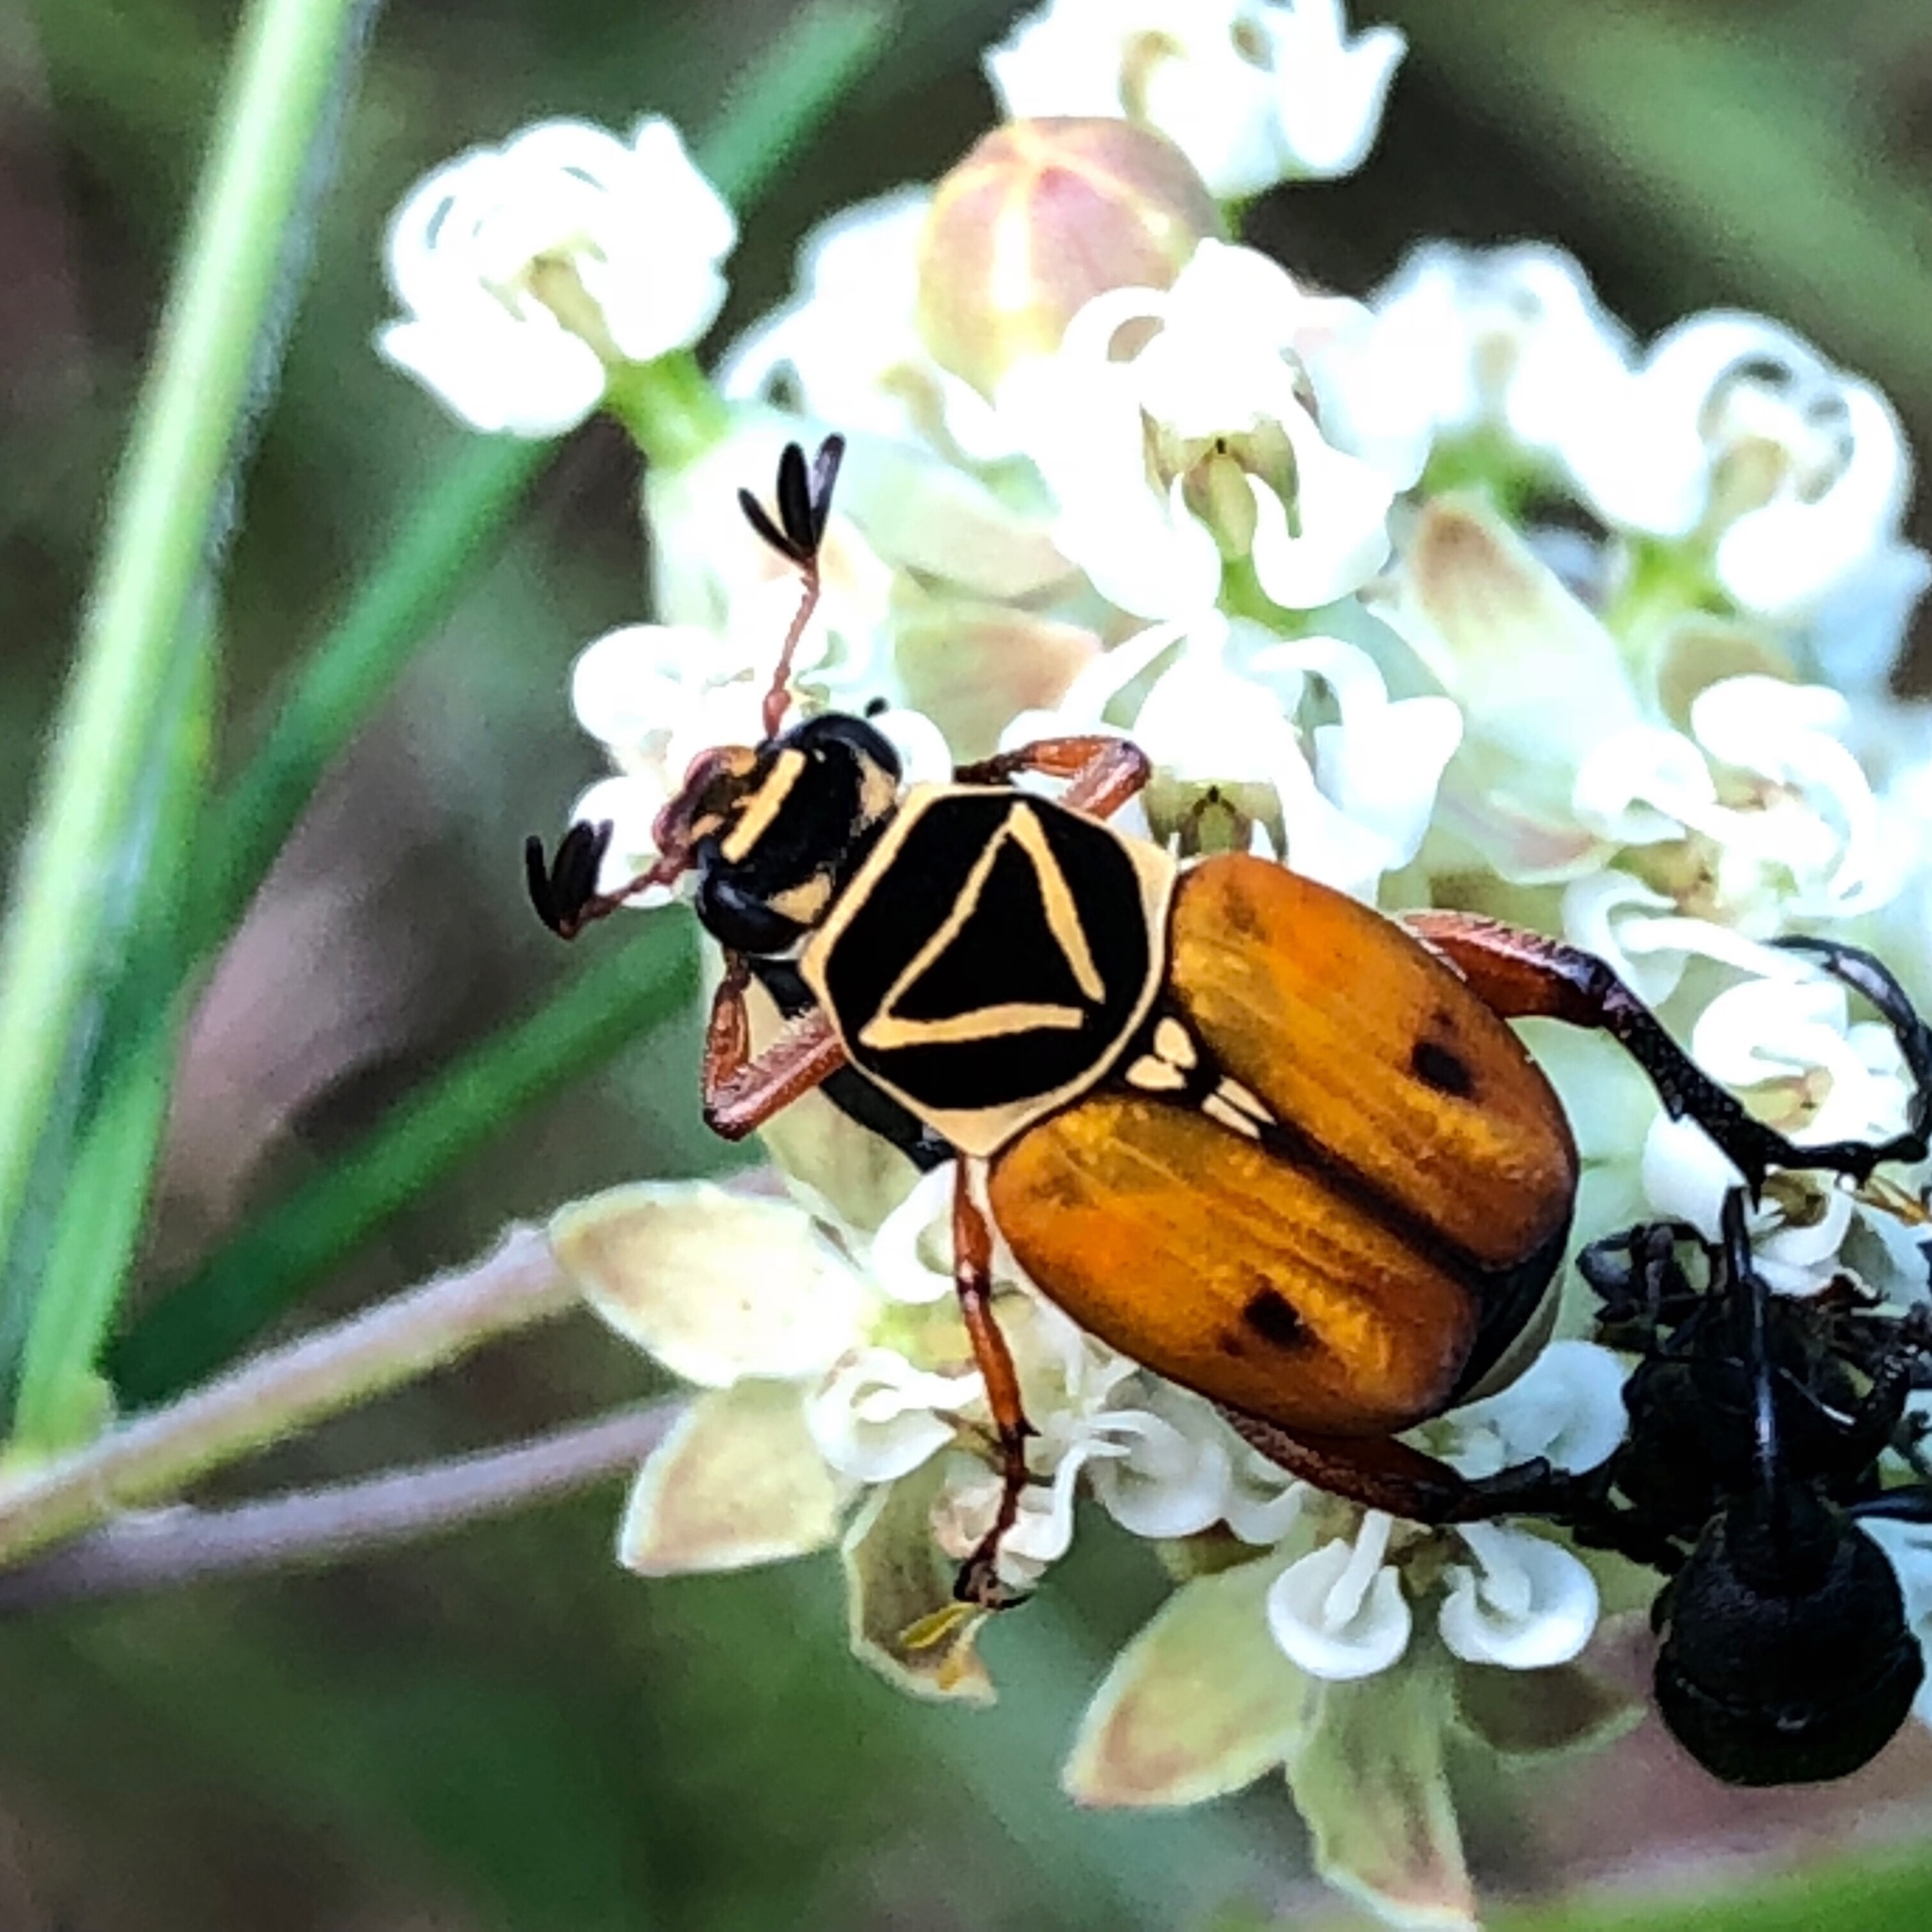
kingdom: Animalia
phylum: Arthropoda
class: Insecta
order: Coleoptera
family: Scarabaeidae
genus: Trigonopeltastes
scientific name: Trigonopeltastes delta
